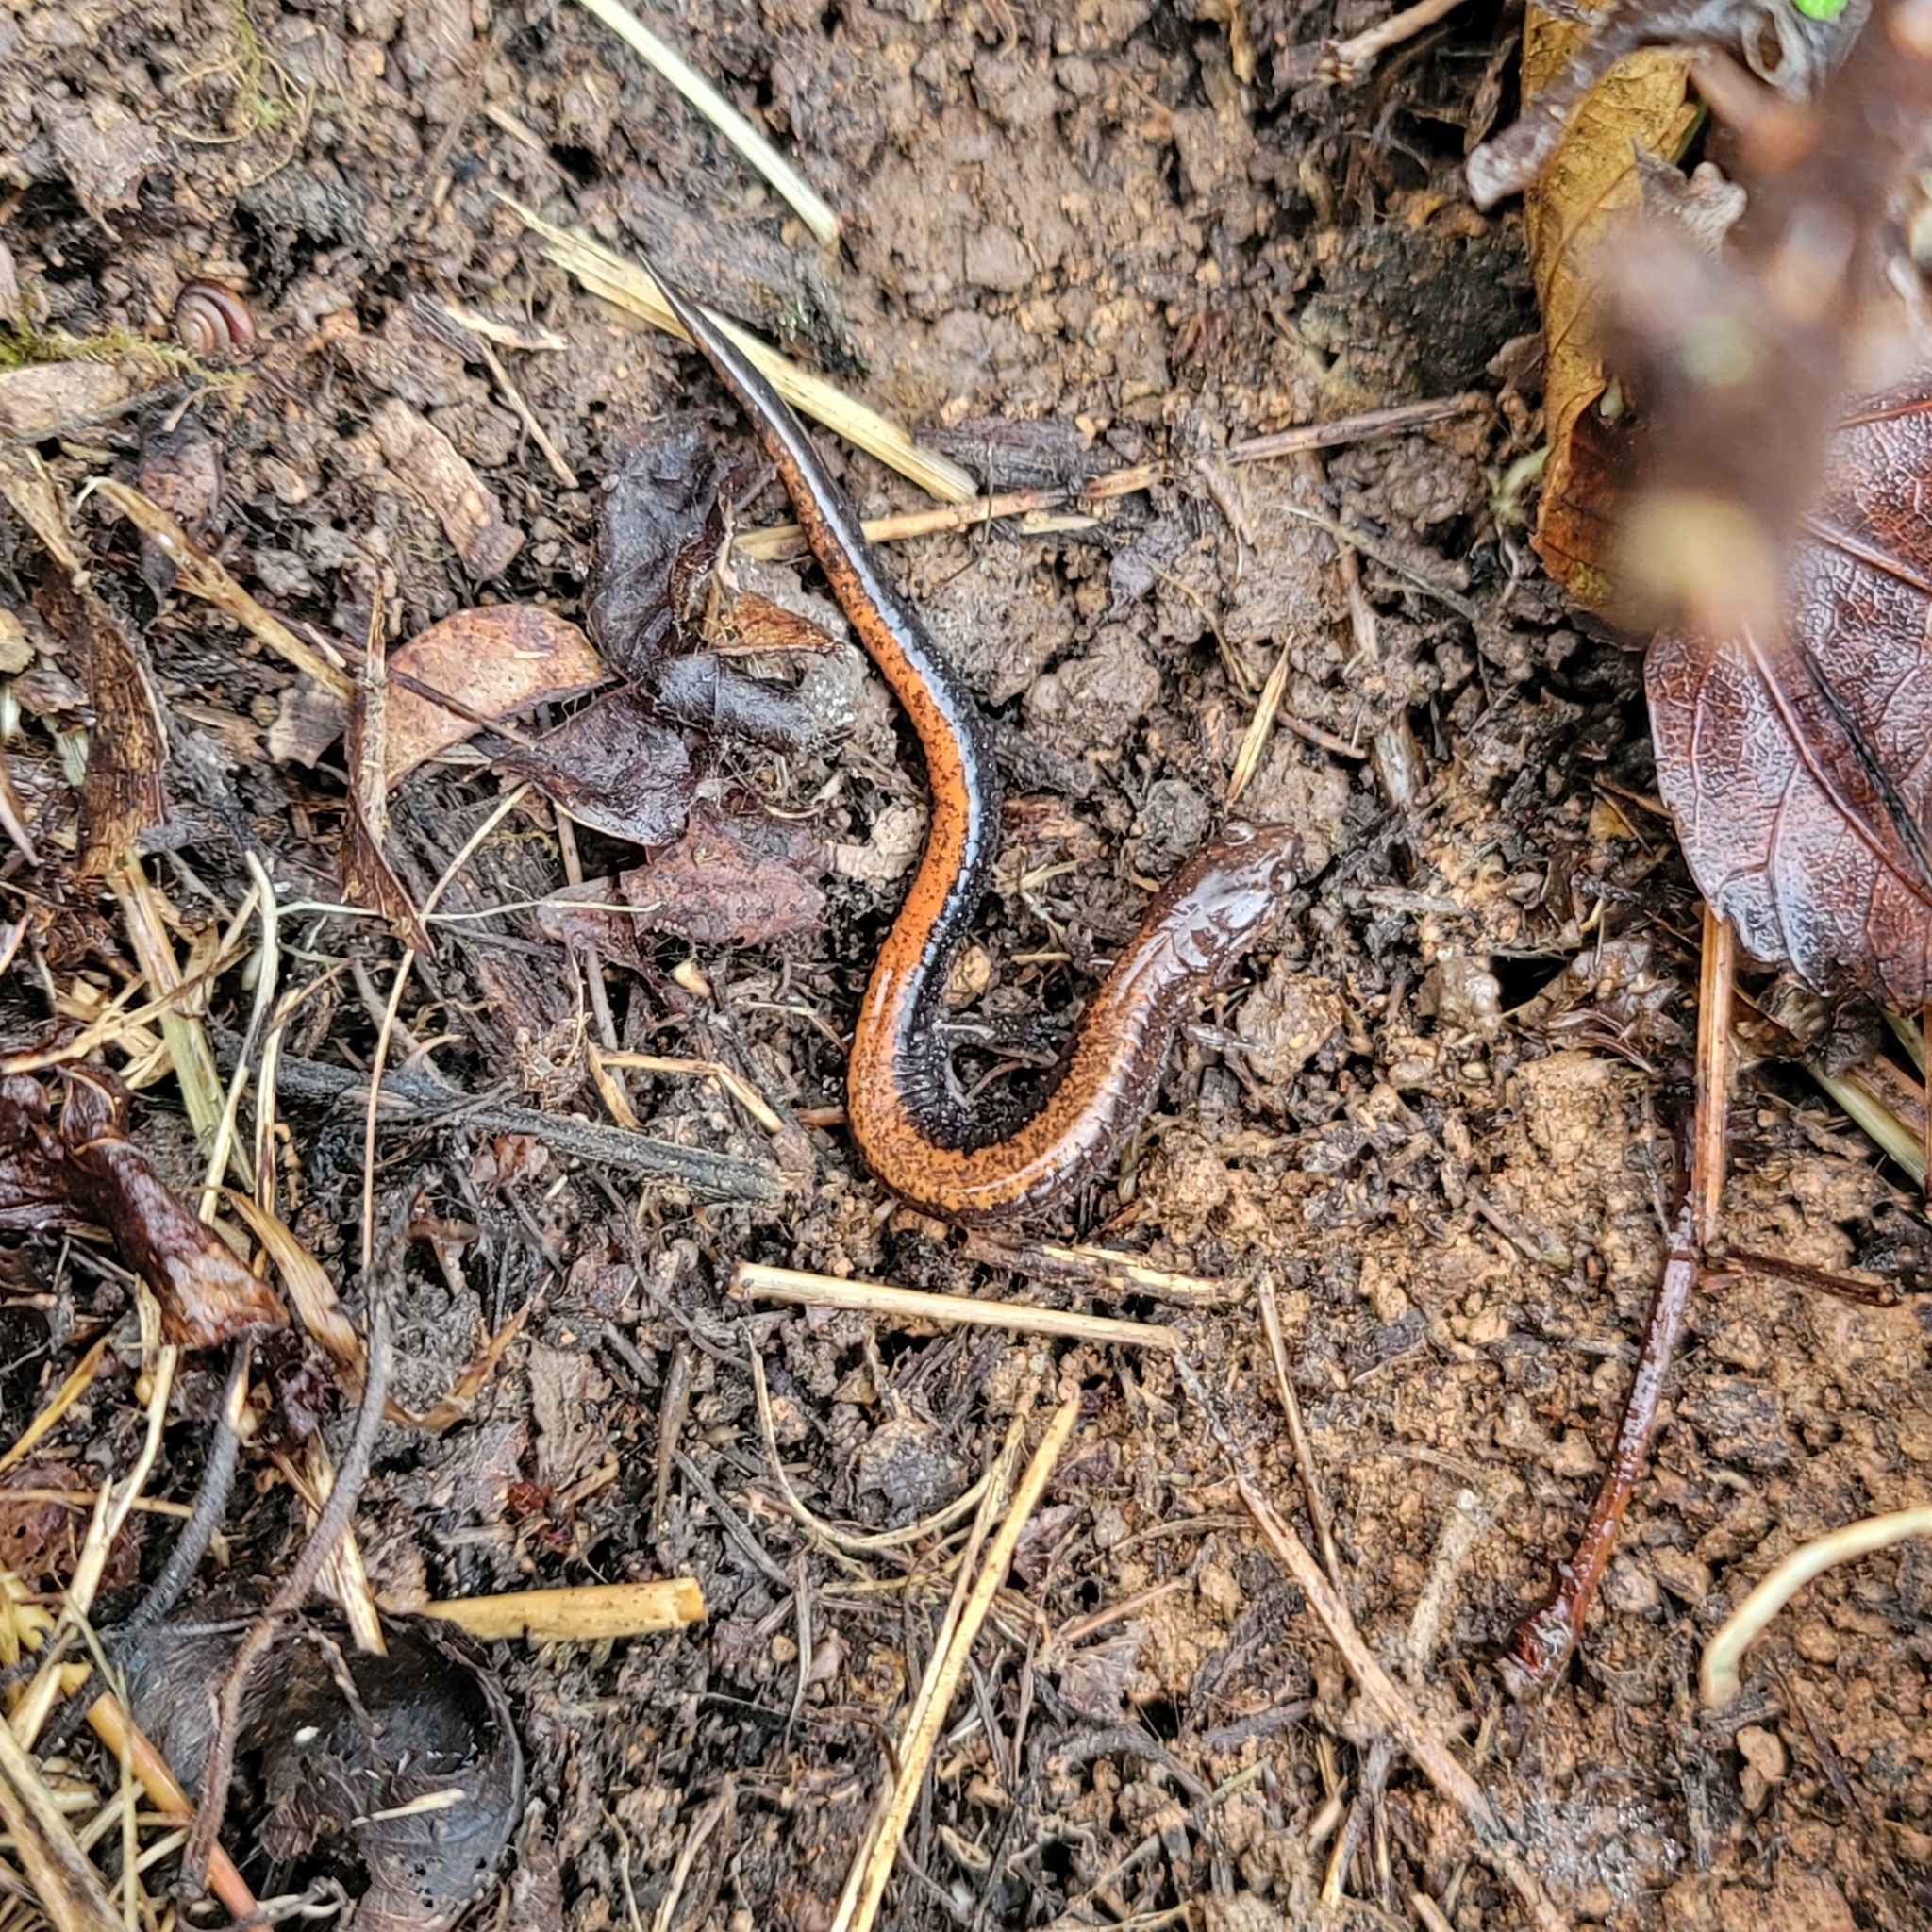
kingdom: Animalia
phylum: Chordata
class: Amphibia
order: Caudata
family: Plethodontidae
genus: Plethodon
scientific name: Plethodon serratus
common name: Southern red-backed salamander
